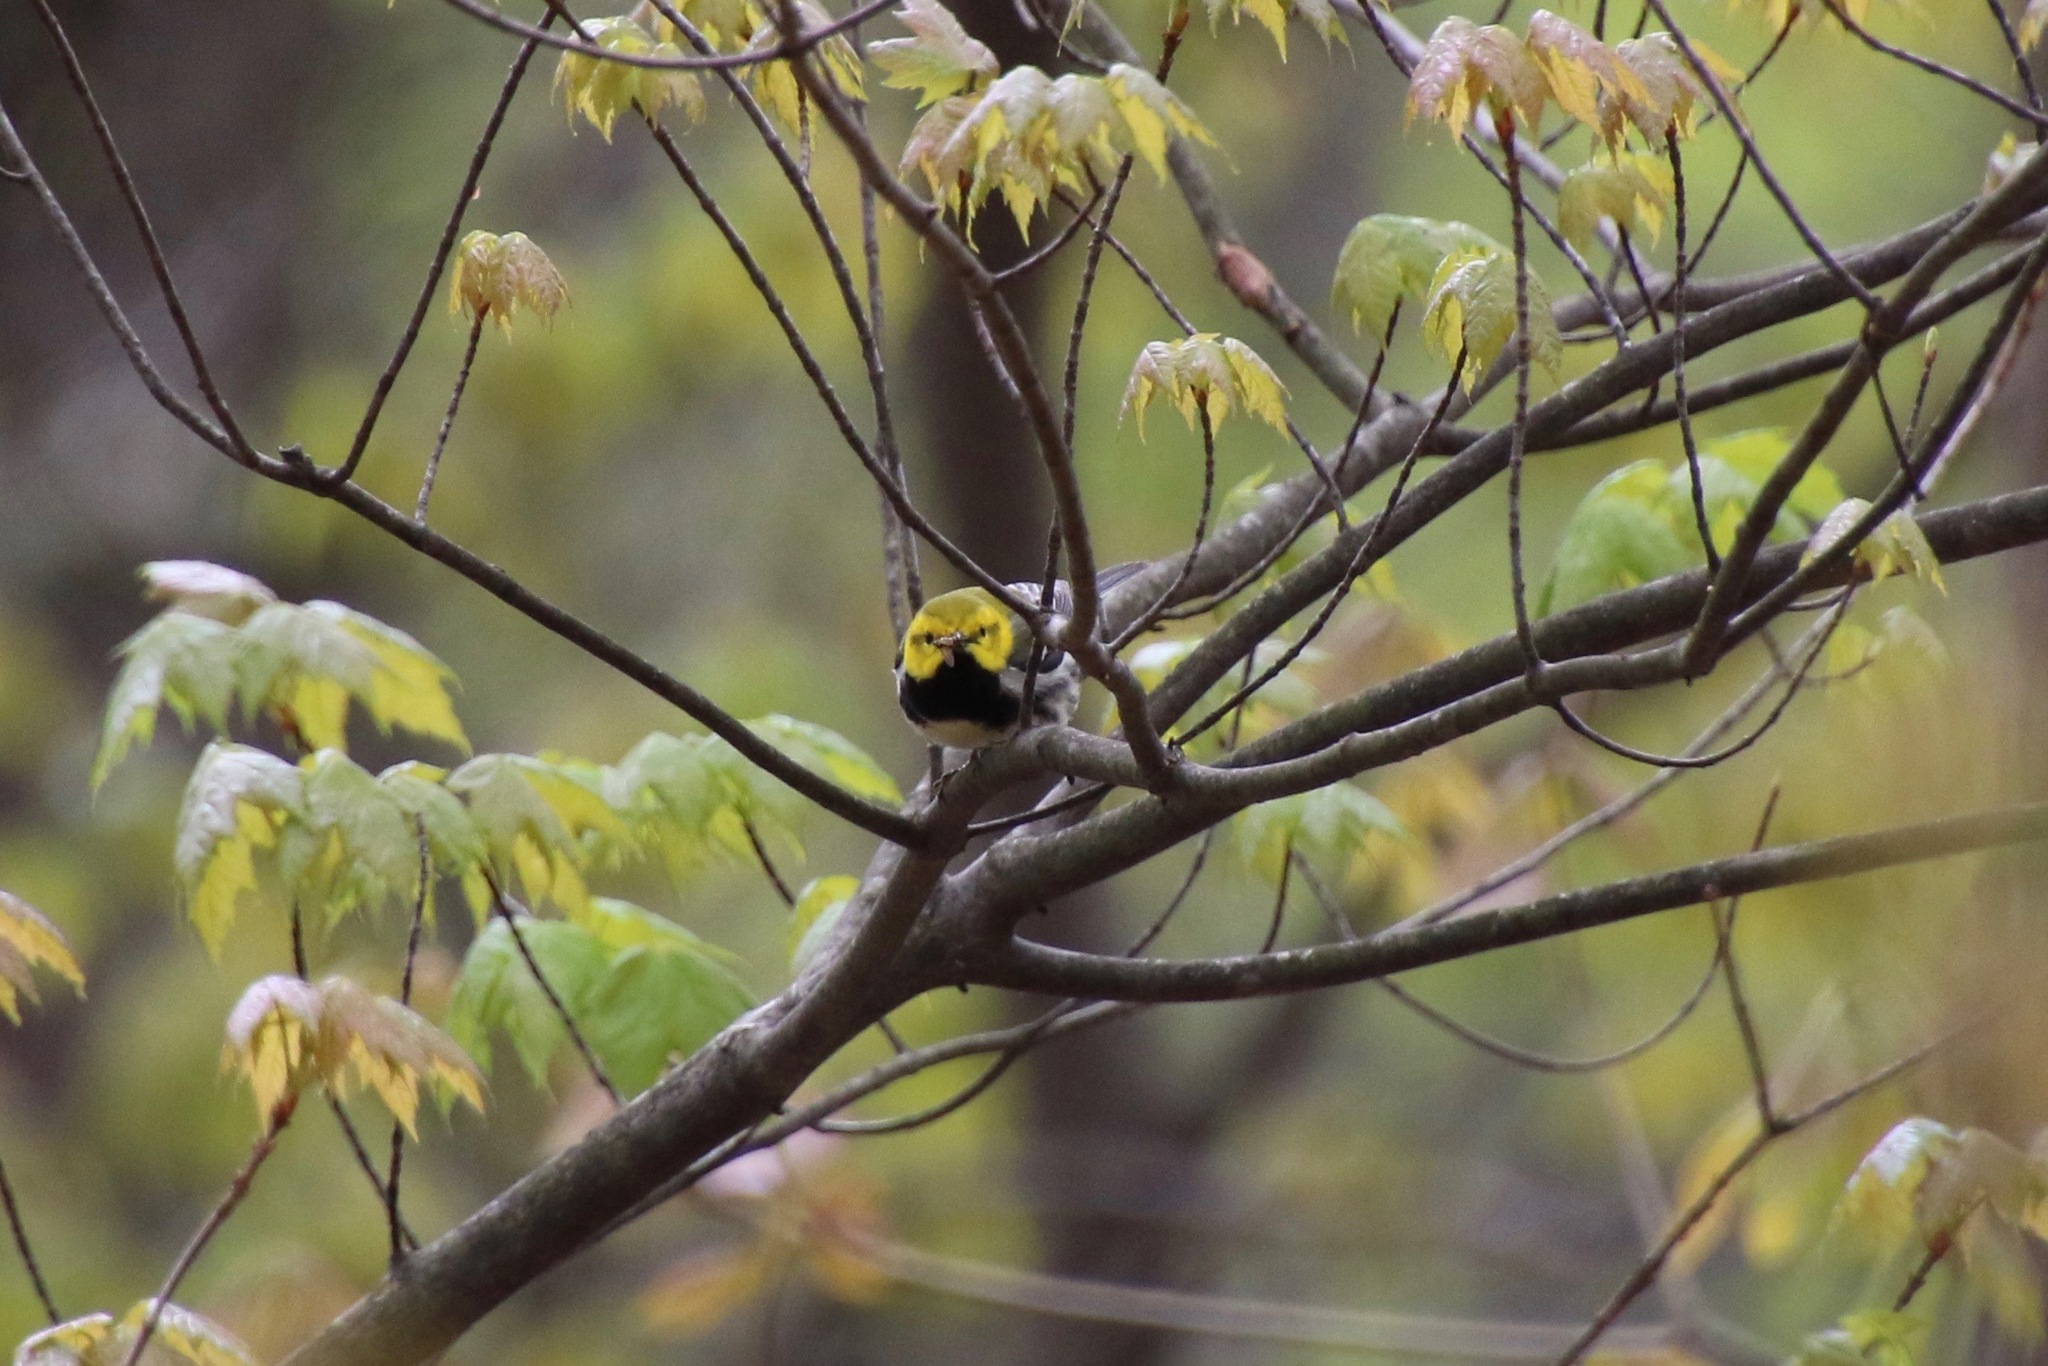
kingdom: Animalia
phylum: Chordata
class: Aves
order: Passeriformes
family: Parulidae
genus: Setophaga
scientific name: Setophaga virens
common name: Black-throated green warbler
